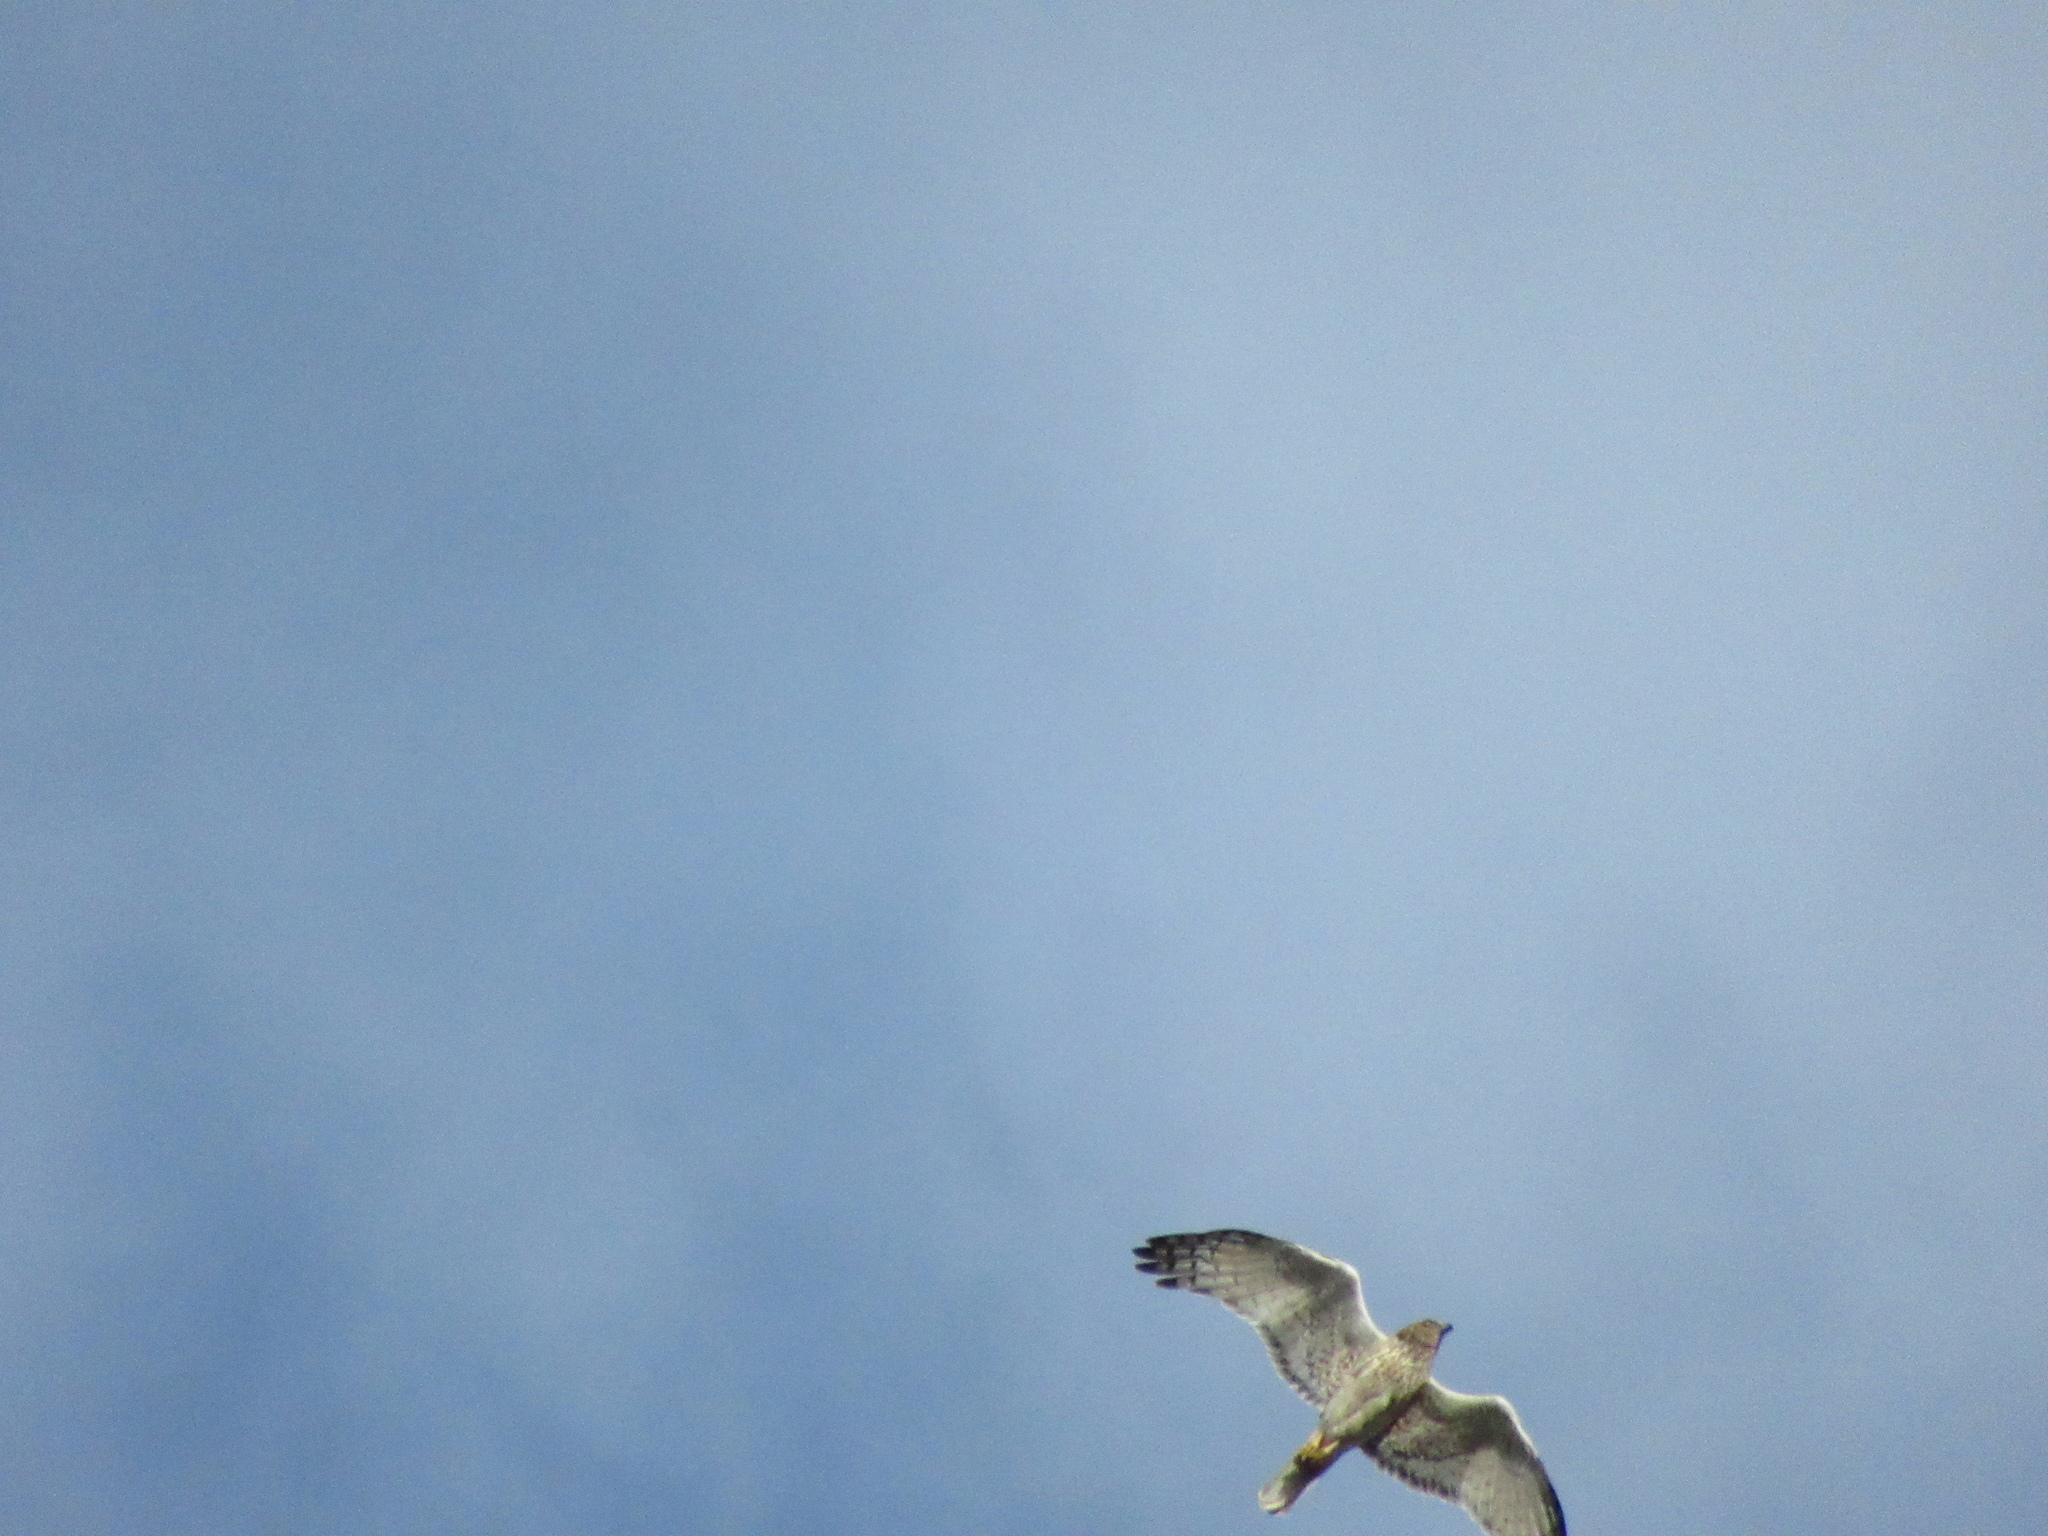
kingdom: Animalia
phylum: Chordata
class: Aves
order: Accipitriformes
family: Accipitridae
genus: Circus
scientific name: Circus approximans
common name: Swamp harrier
